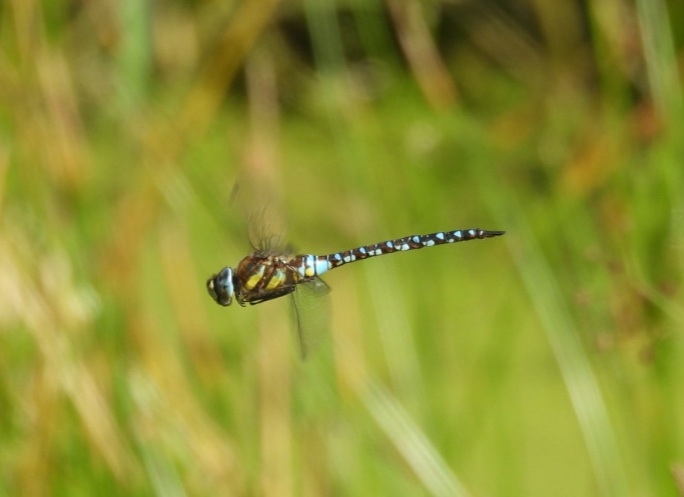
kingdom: Animalia
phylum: Arthropoda
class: Insecta
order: Odonata
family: Aeshnidae
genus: Aeshna
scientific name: Aeshna mixta
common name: Migrant hawker
